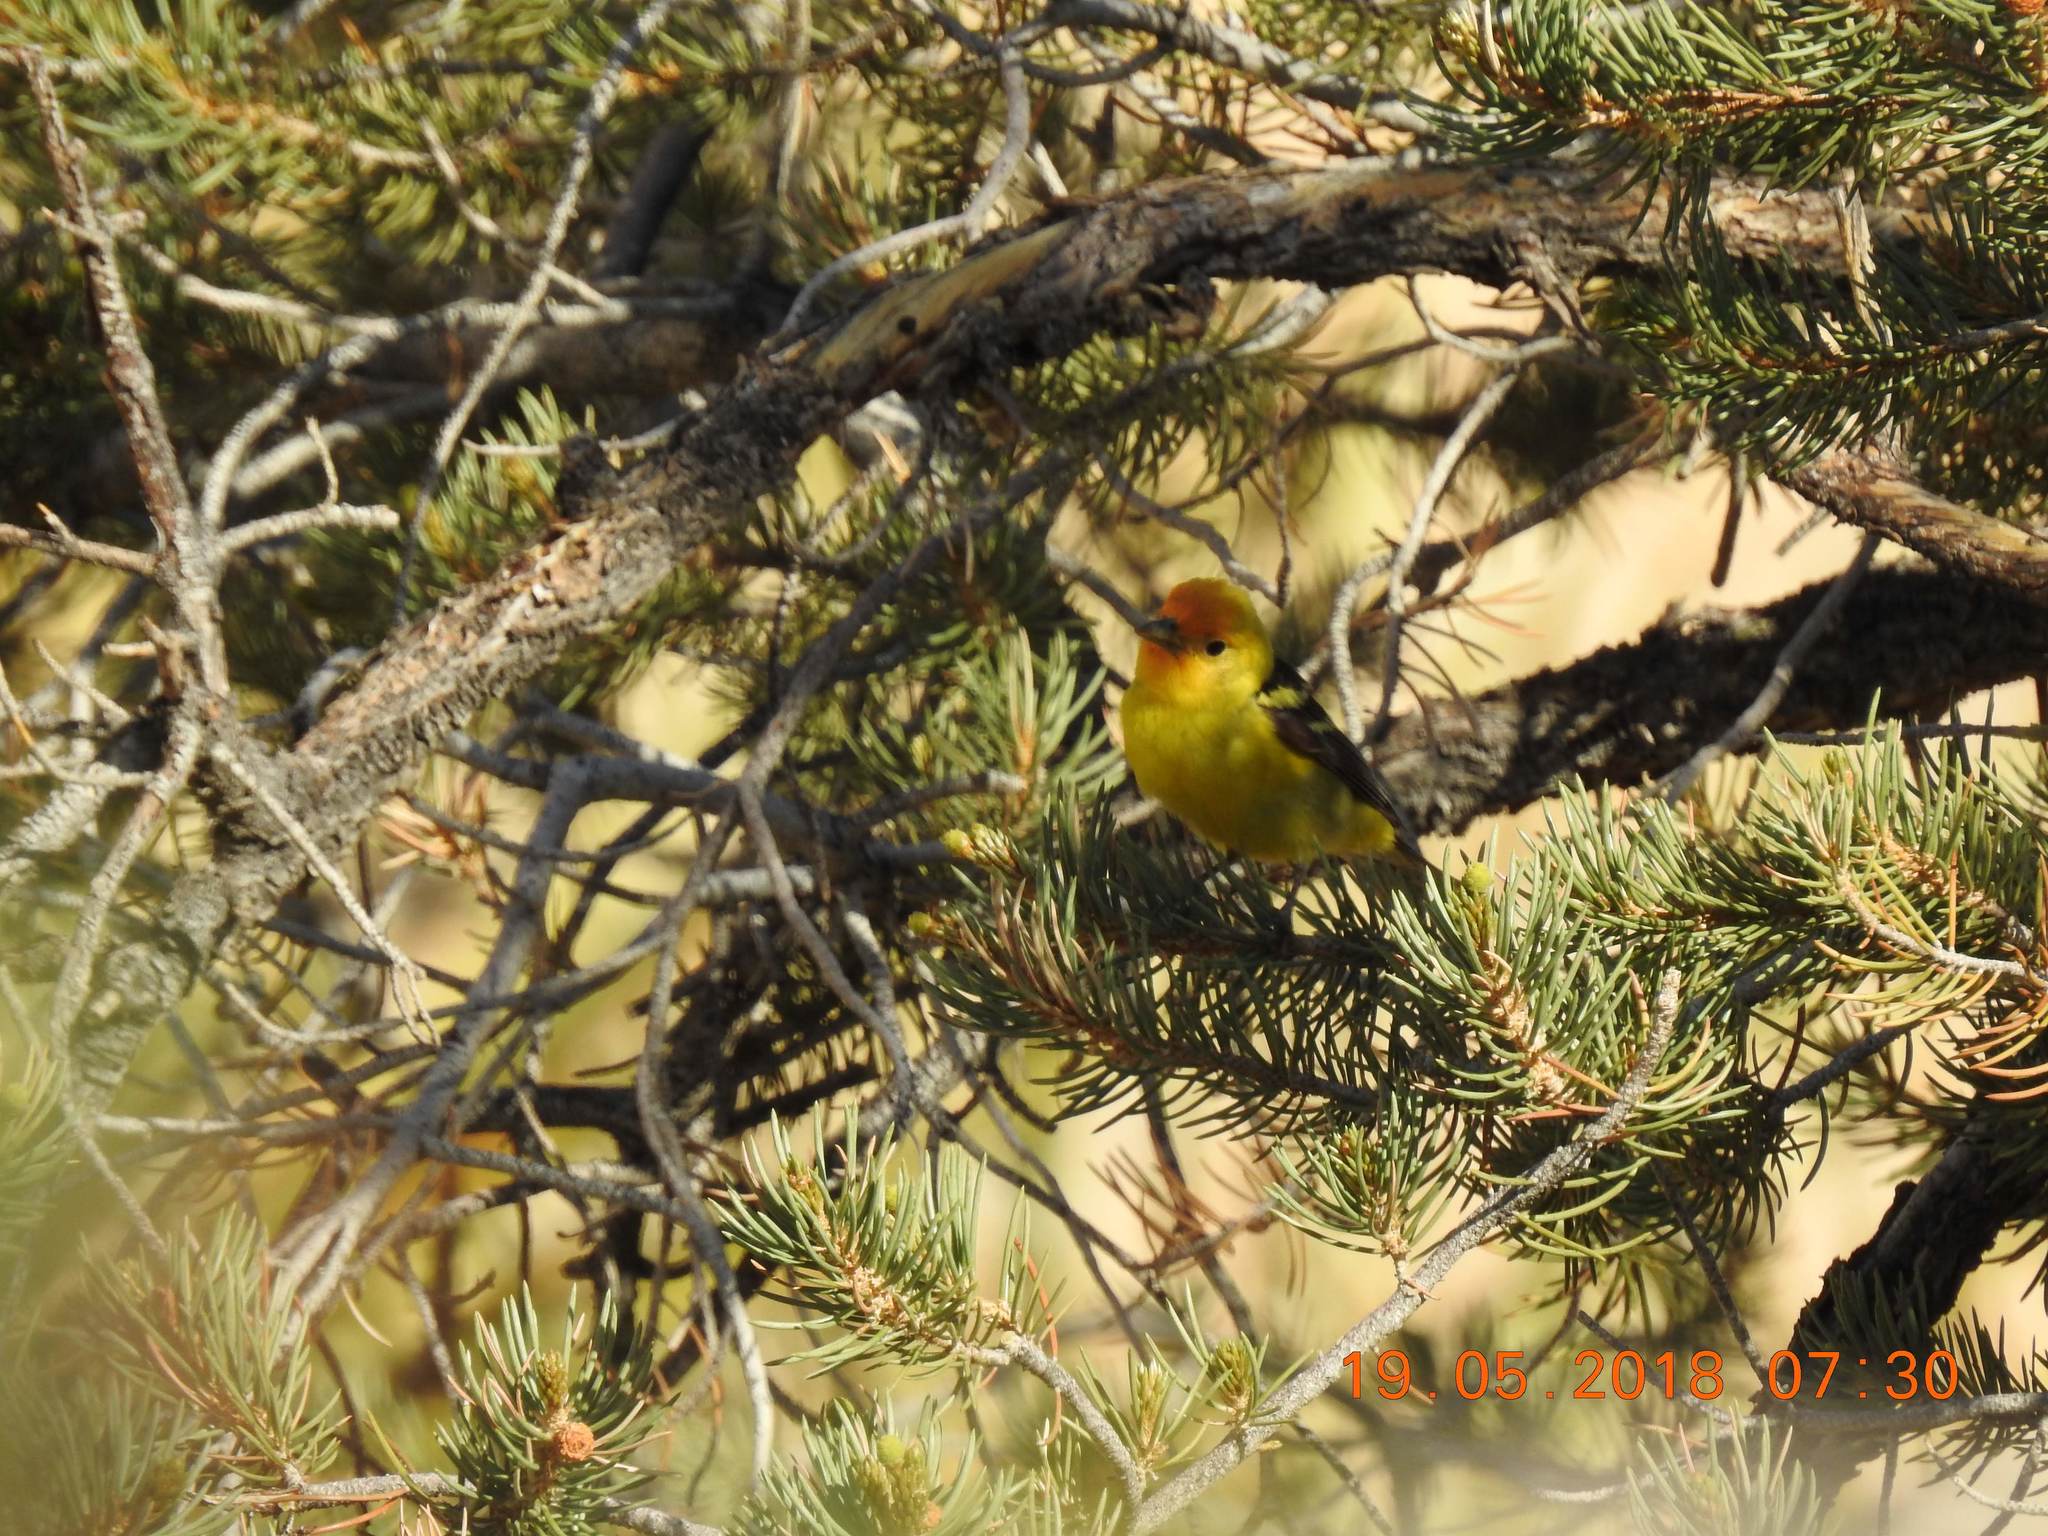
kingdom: Animalia
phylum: Chordata
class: Aves
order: Passeriformes
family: Cardinalidae
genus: Piranga
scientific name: Piranga ludoviciana
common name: Western tanager
